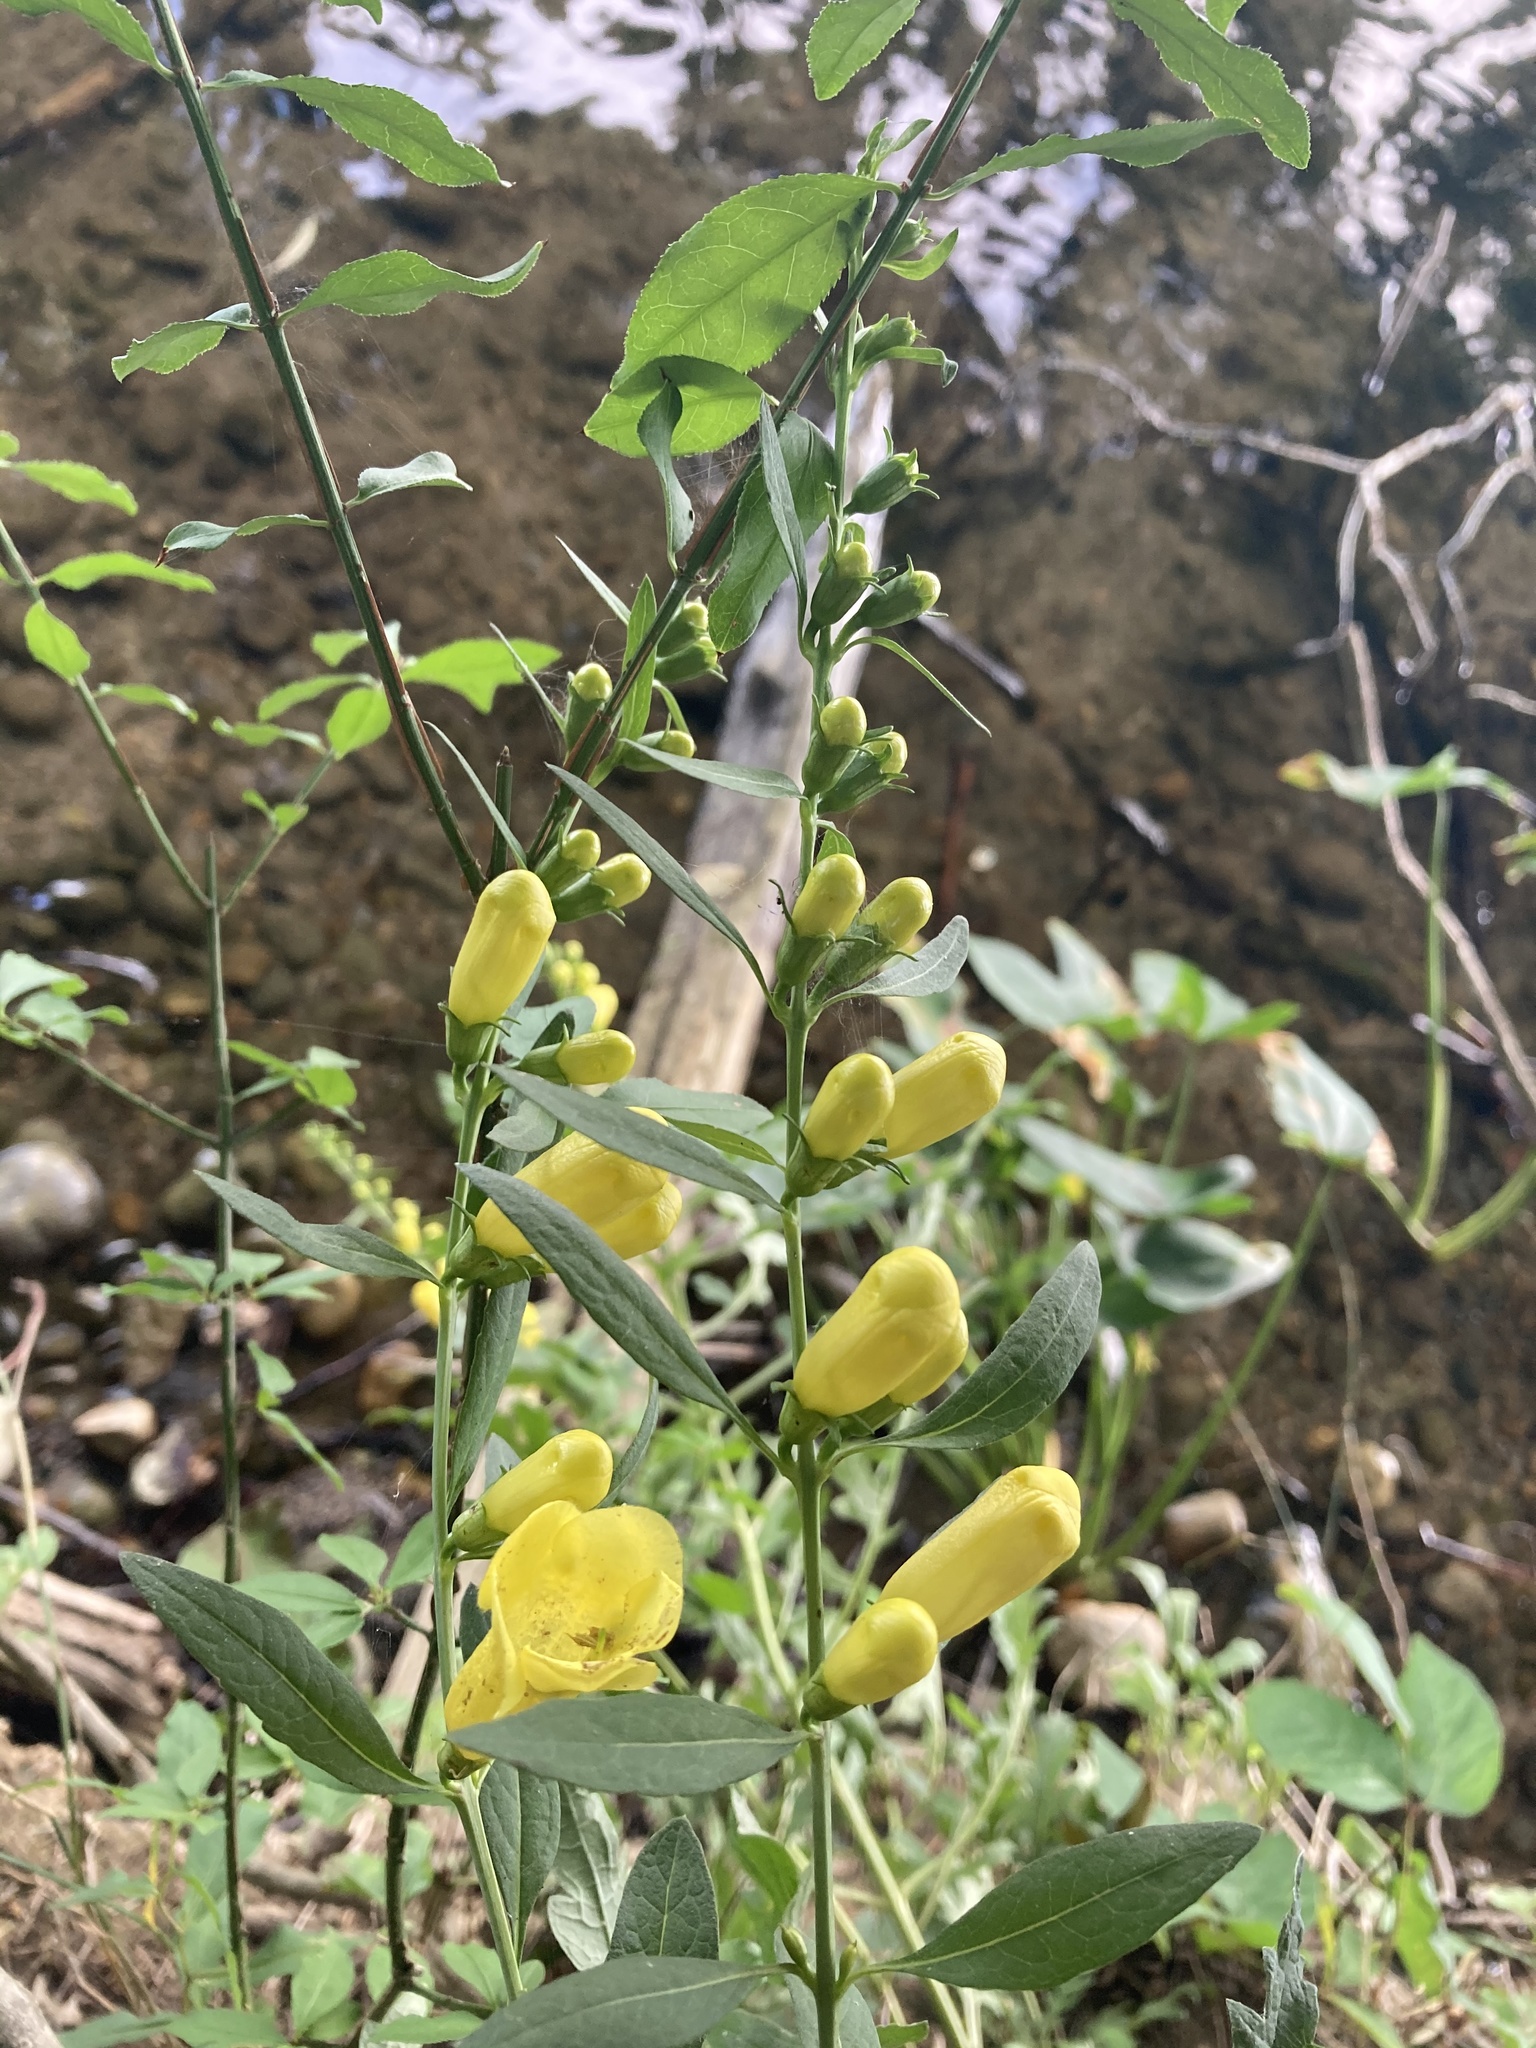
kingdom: Plantae
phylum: Tracheophyta
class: Magnoliopsida
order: Lamiales
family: Orobanchaceae
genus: Aureolaria
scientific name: Aureolaria flava
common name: Smooth false foxglove
